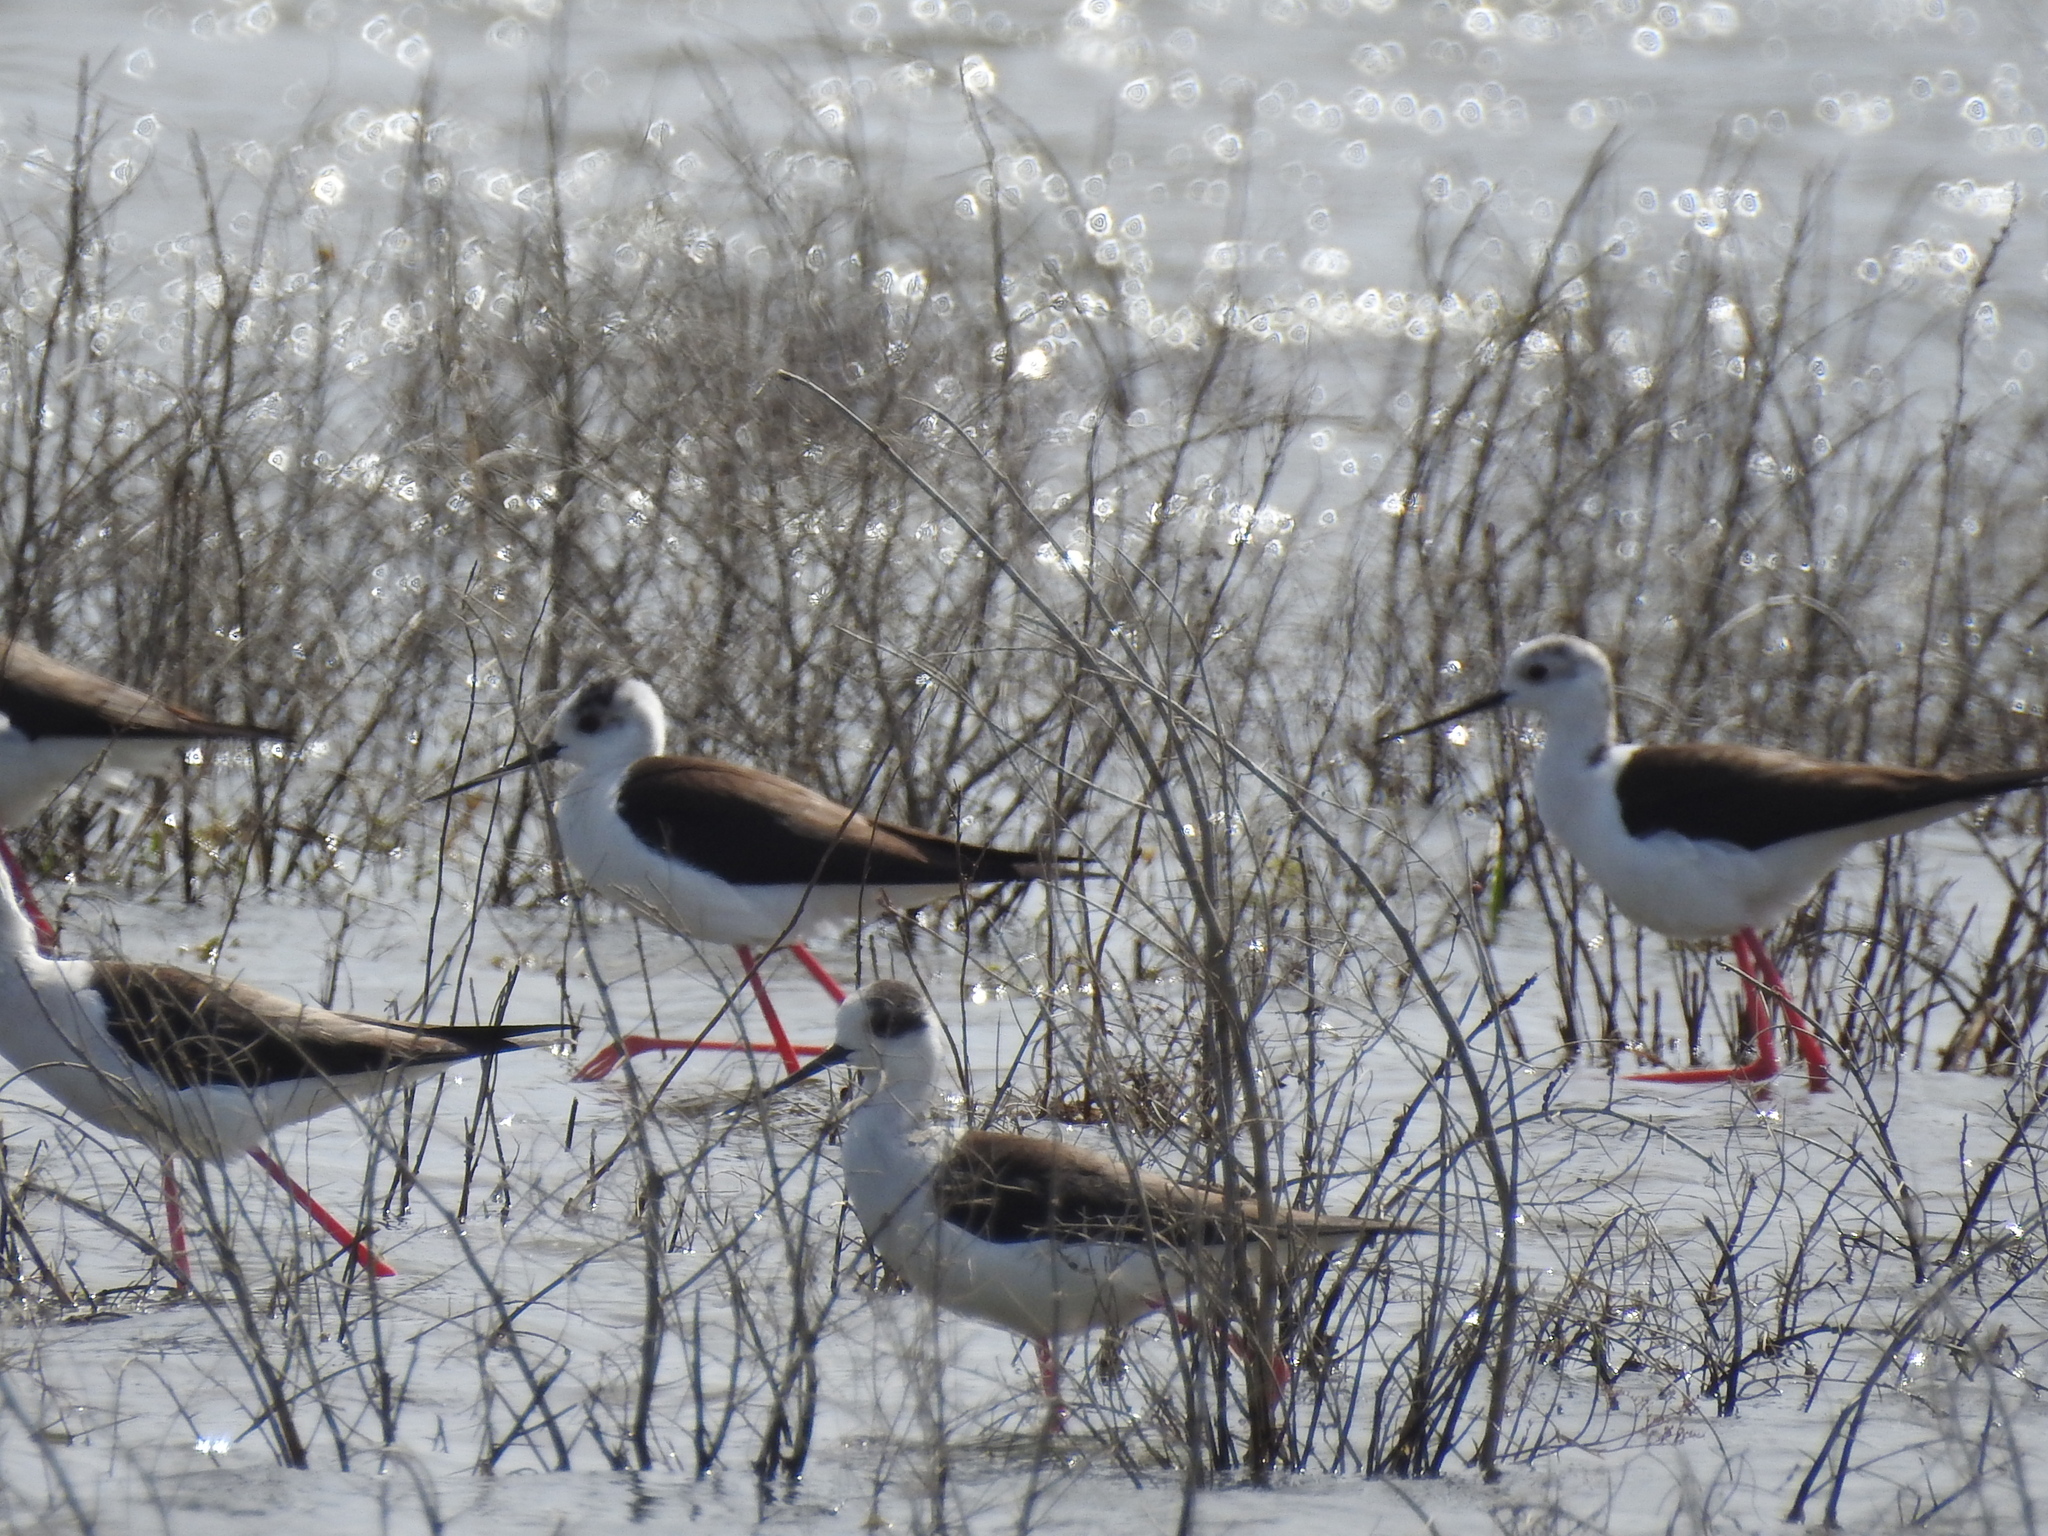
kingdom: Animalia
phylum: Chordata
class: Aves
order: Charadriiformes
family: Recurvirostridae
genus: Himantopus
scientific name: Himantopus himantopus
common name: Black-winged stilt
